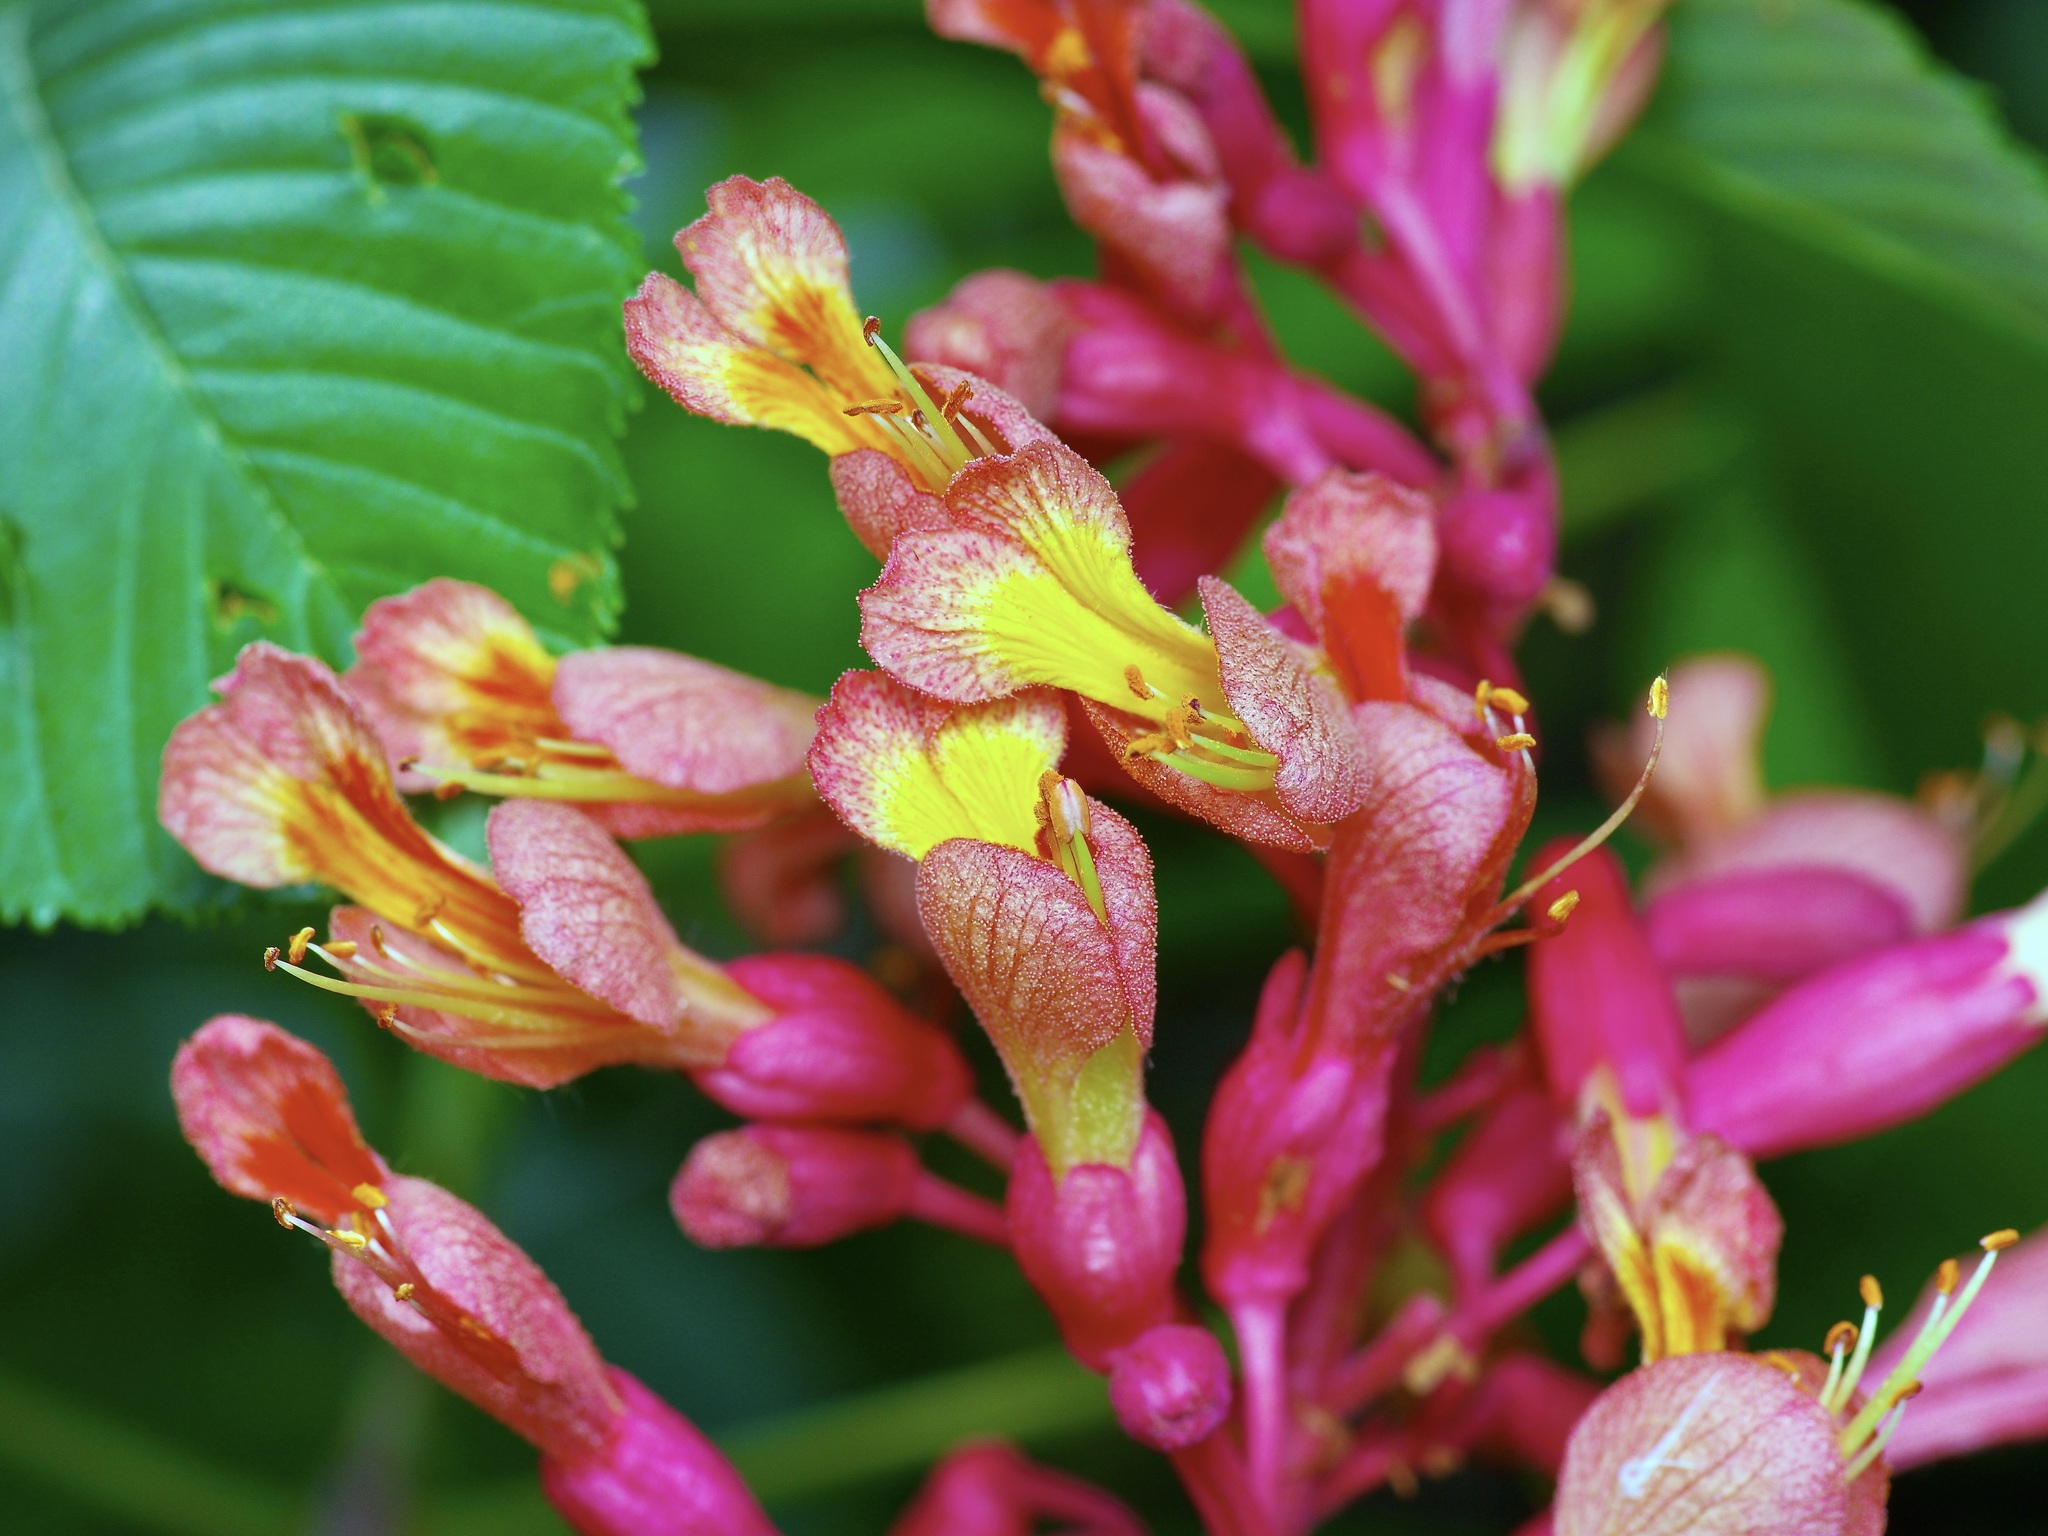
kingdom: Plantae
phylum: Tracheophyta
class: Magnoliopsida
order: Sapindales
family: Sapindaceae
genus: Aesculus
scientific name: Aesculus pavia
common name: Red buckeye
